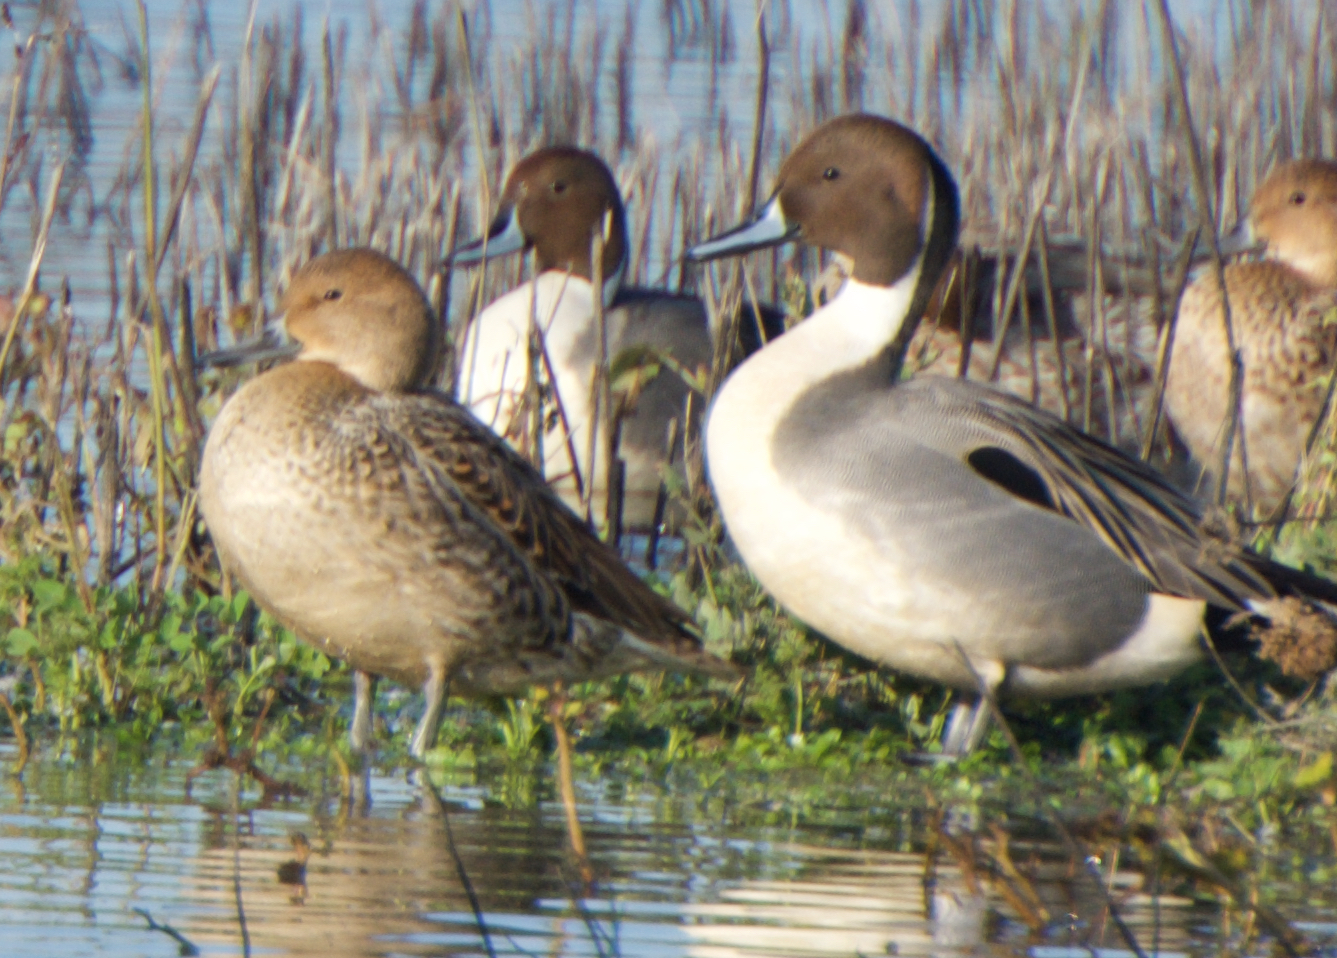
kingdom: Animalia
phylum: Chordata
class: Aves
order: Anseriformes
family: Anatidae
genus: Anas
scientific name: Anas acuta
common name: Northern pintail
